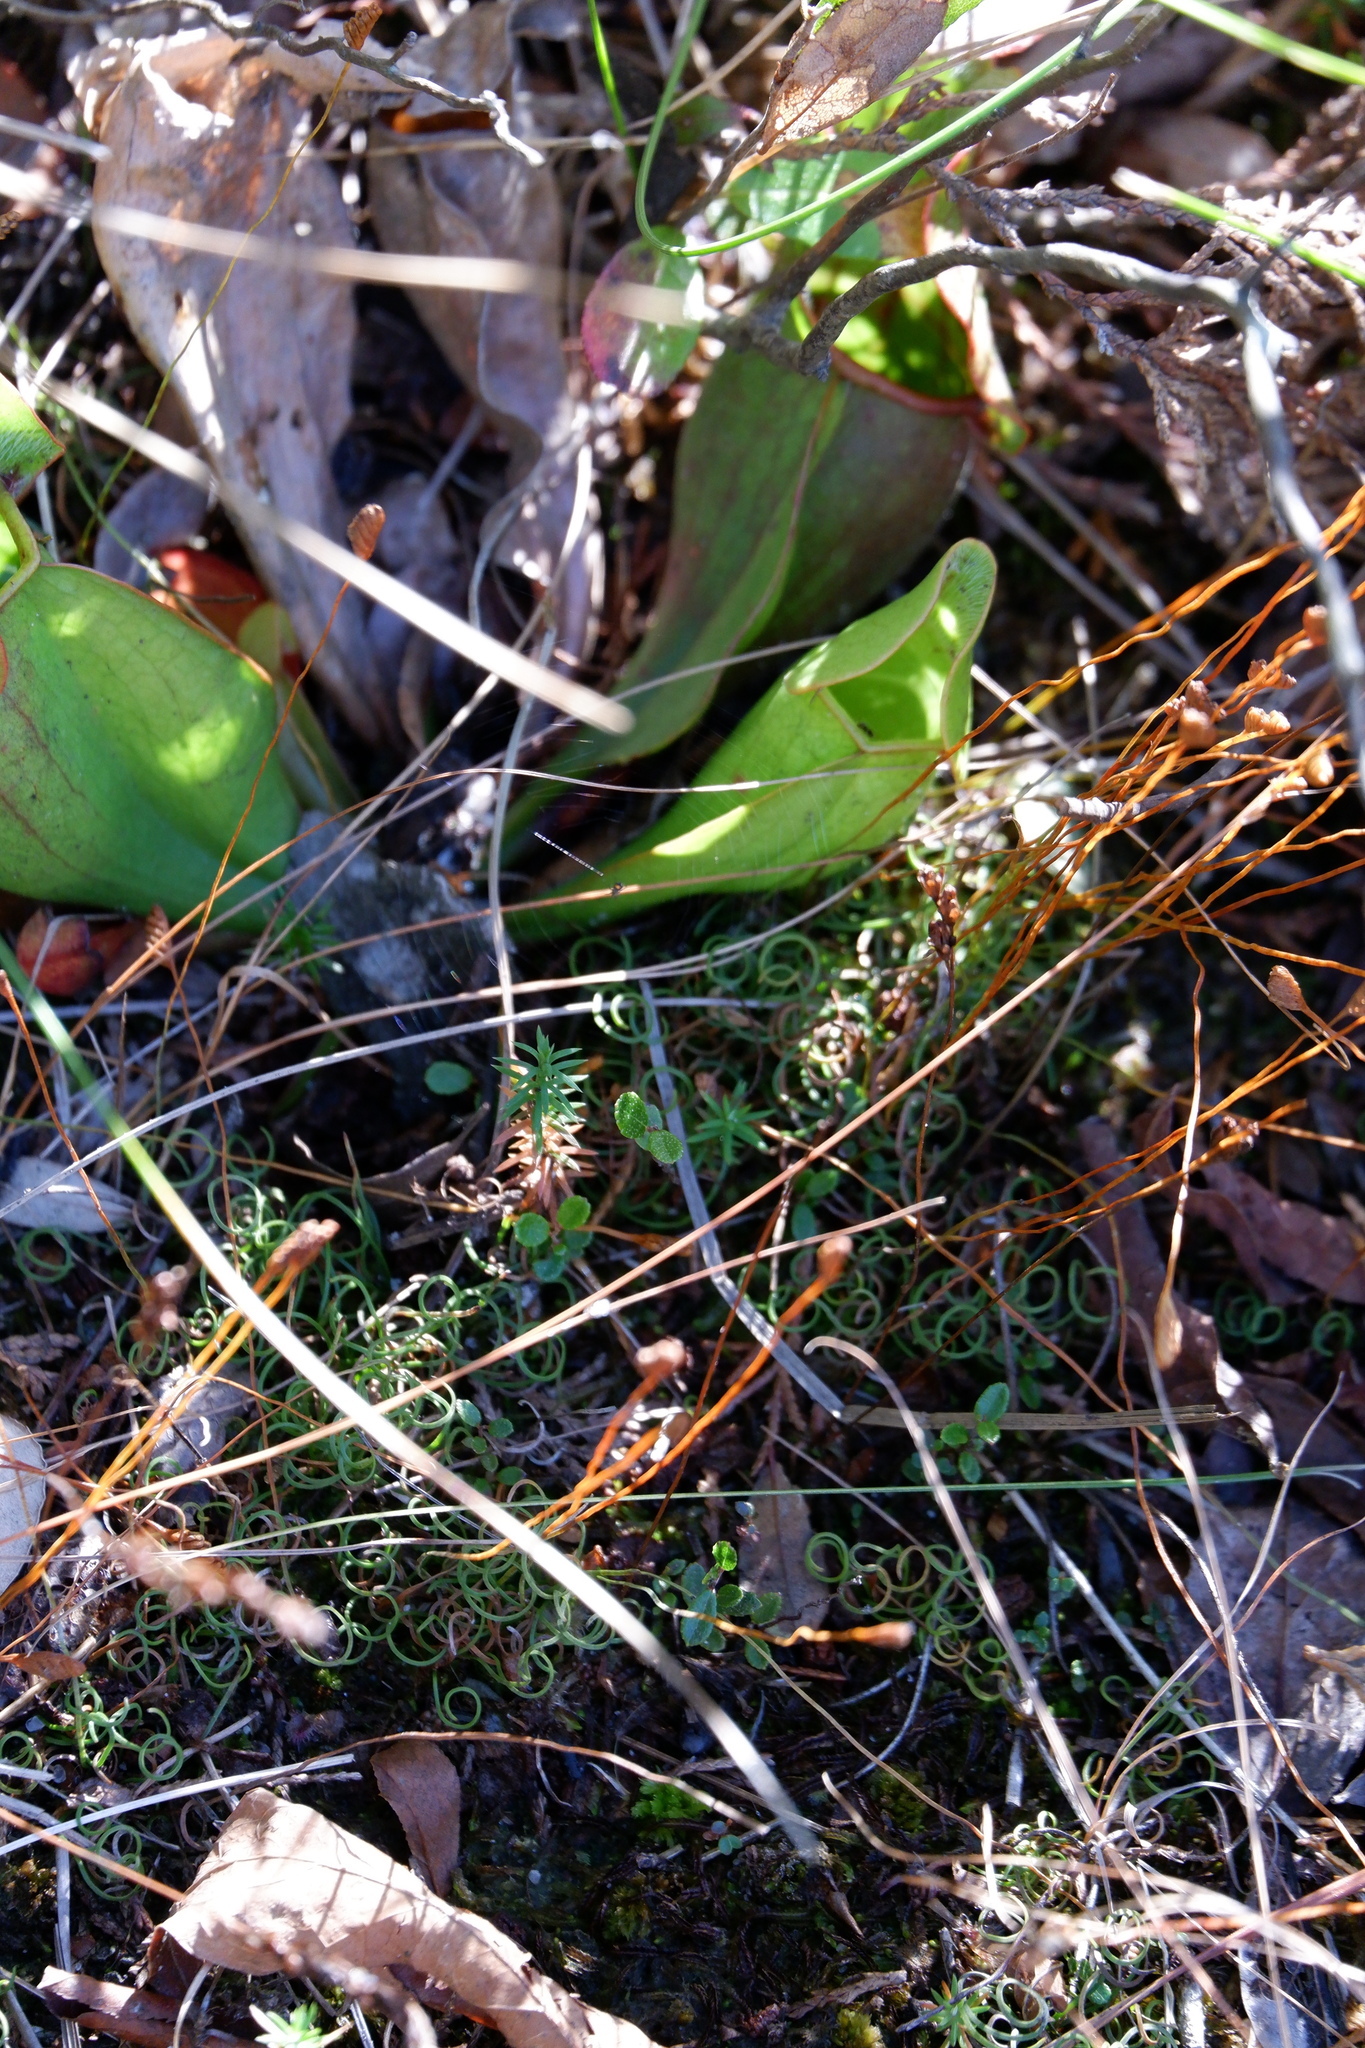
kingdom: Plantae
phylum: Tracheophyta
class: Polypodiopsida
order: Schizaeales
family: Schizaeaceae
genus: Schizaea
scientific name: Schizaea pusilla
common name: Curly-grass fern
